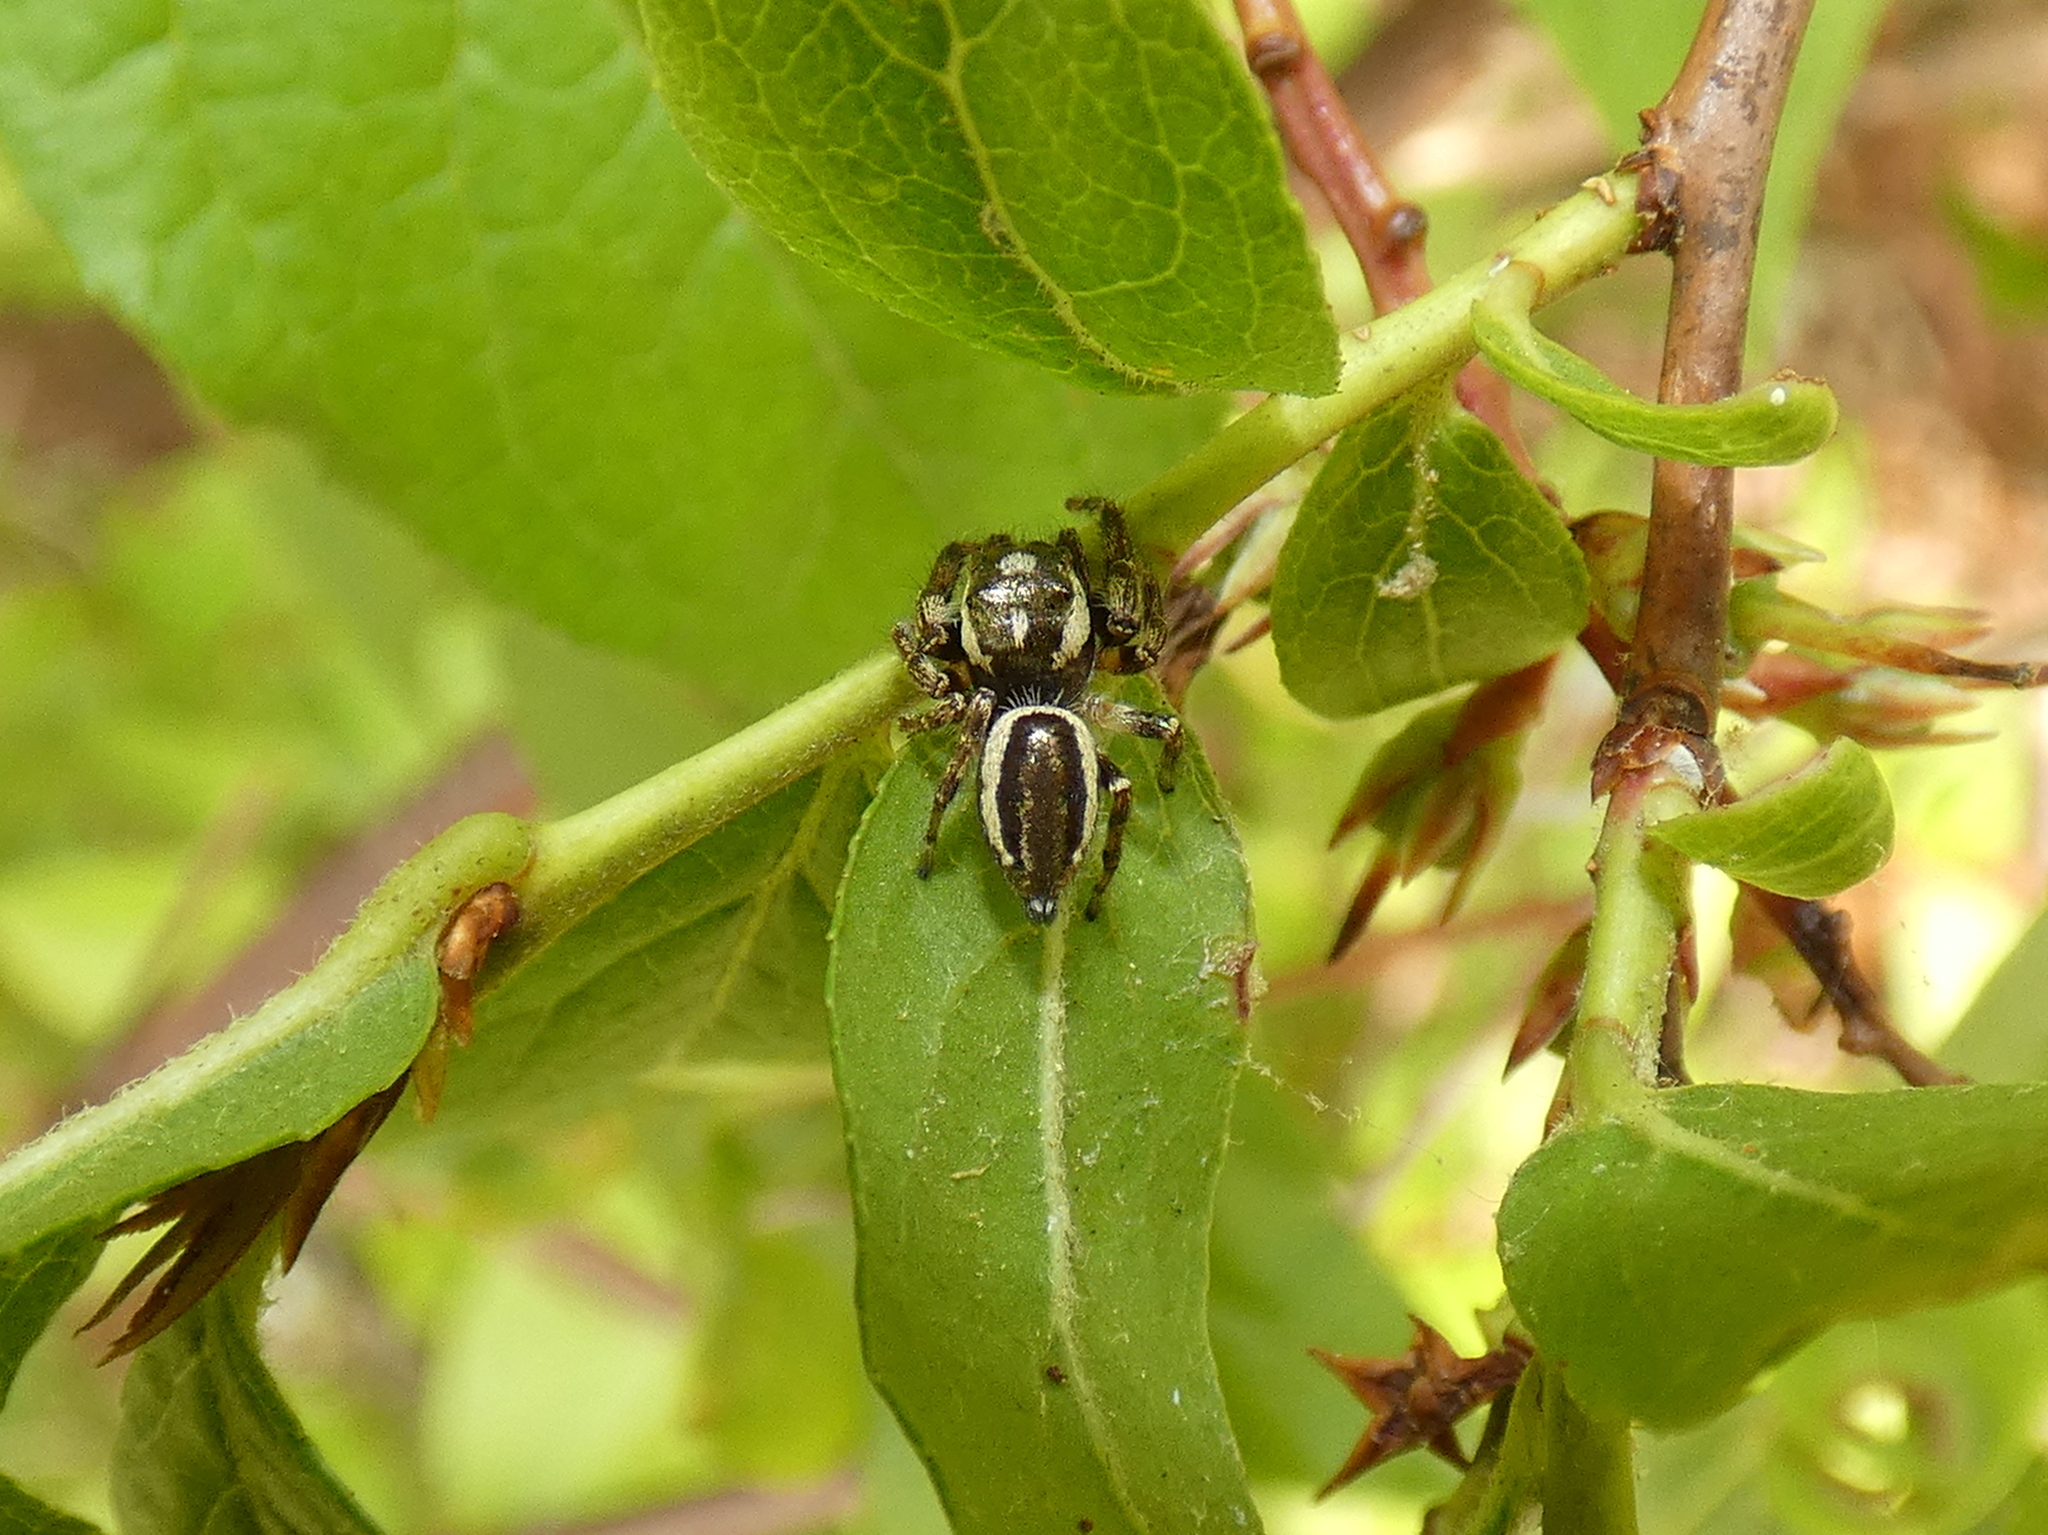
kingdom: Animalia
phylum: Arthropoda
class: Arachnida
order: Araneae
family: Salticidae
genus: Eris
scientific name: Eris militaris
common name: Bronze jumper
